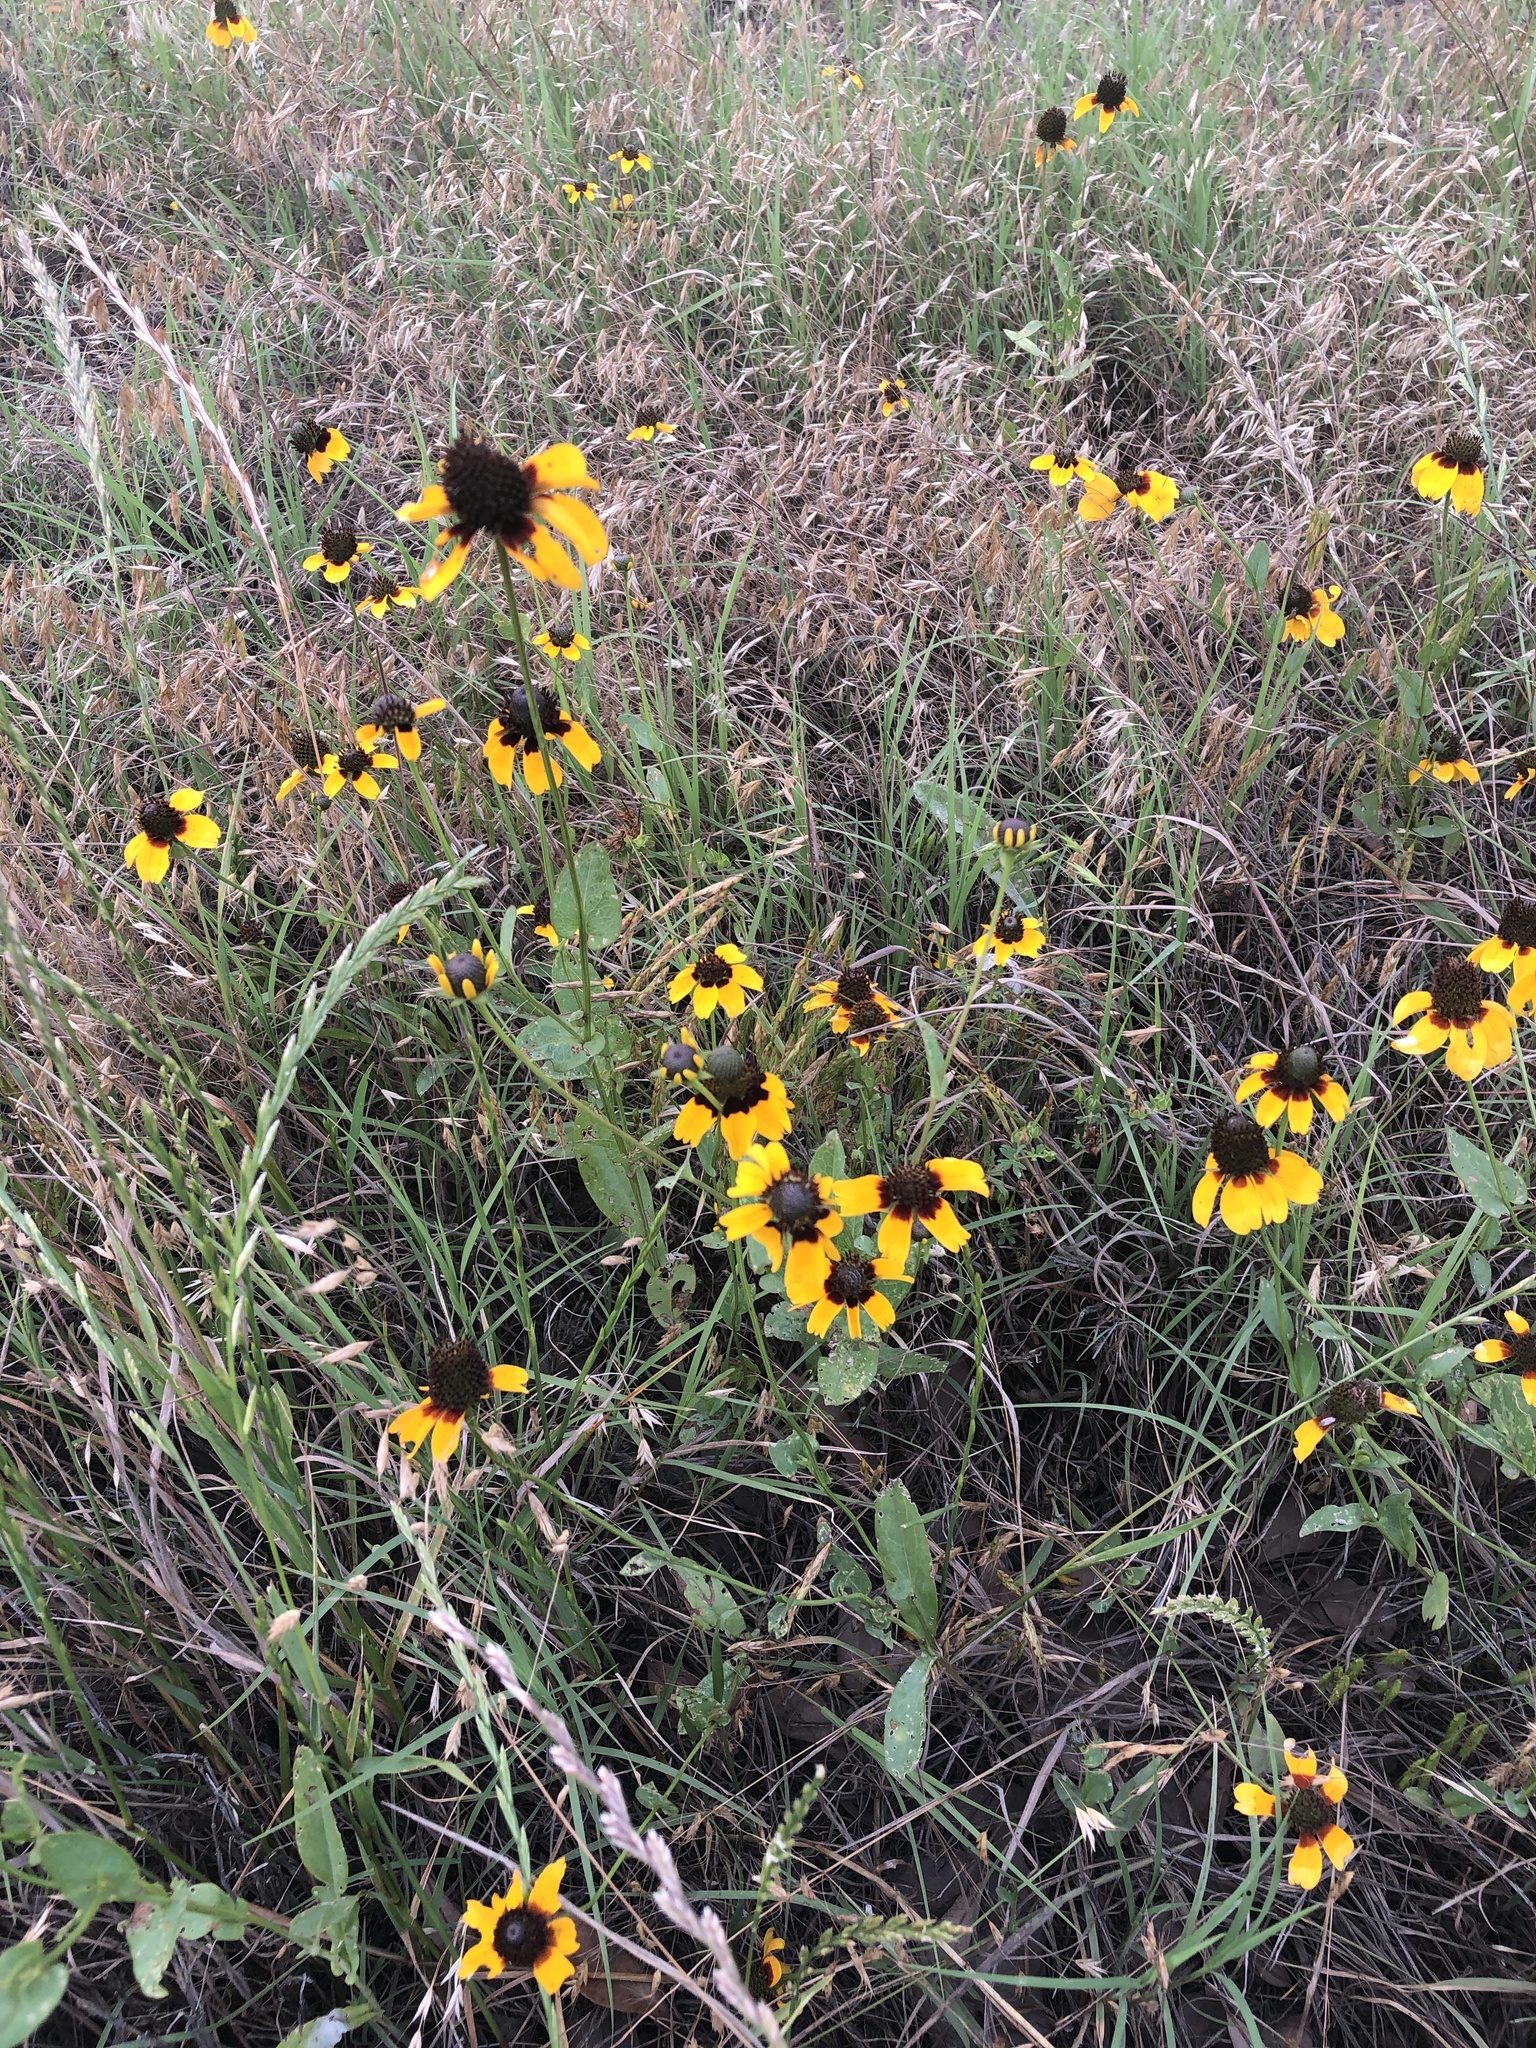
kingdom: Plantae
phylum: Tracheophyta
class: Magnoliopsida
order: Asterales
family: Asteraceae
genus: Rudbeckia
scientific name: Rudbeckia amplexicaulis
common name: Clasping-leaf coneflower
